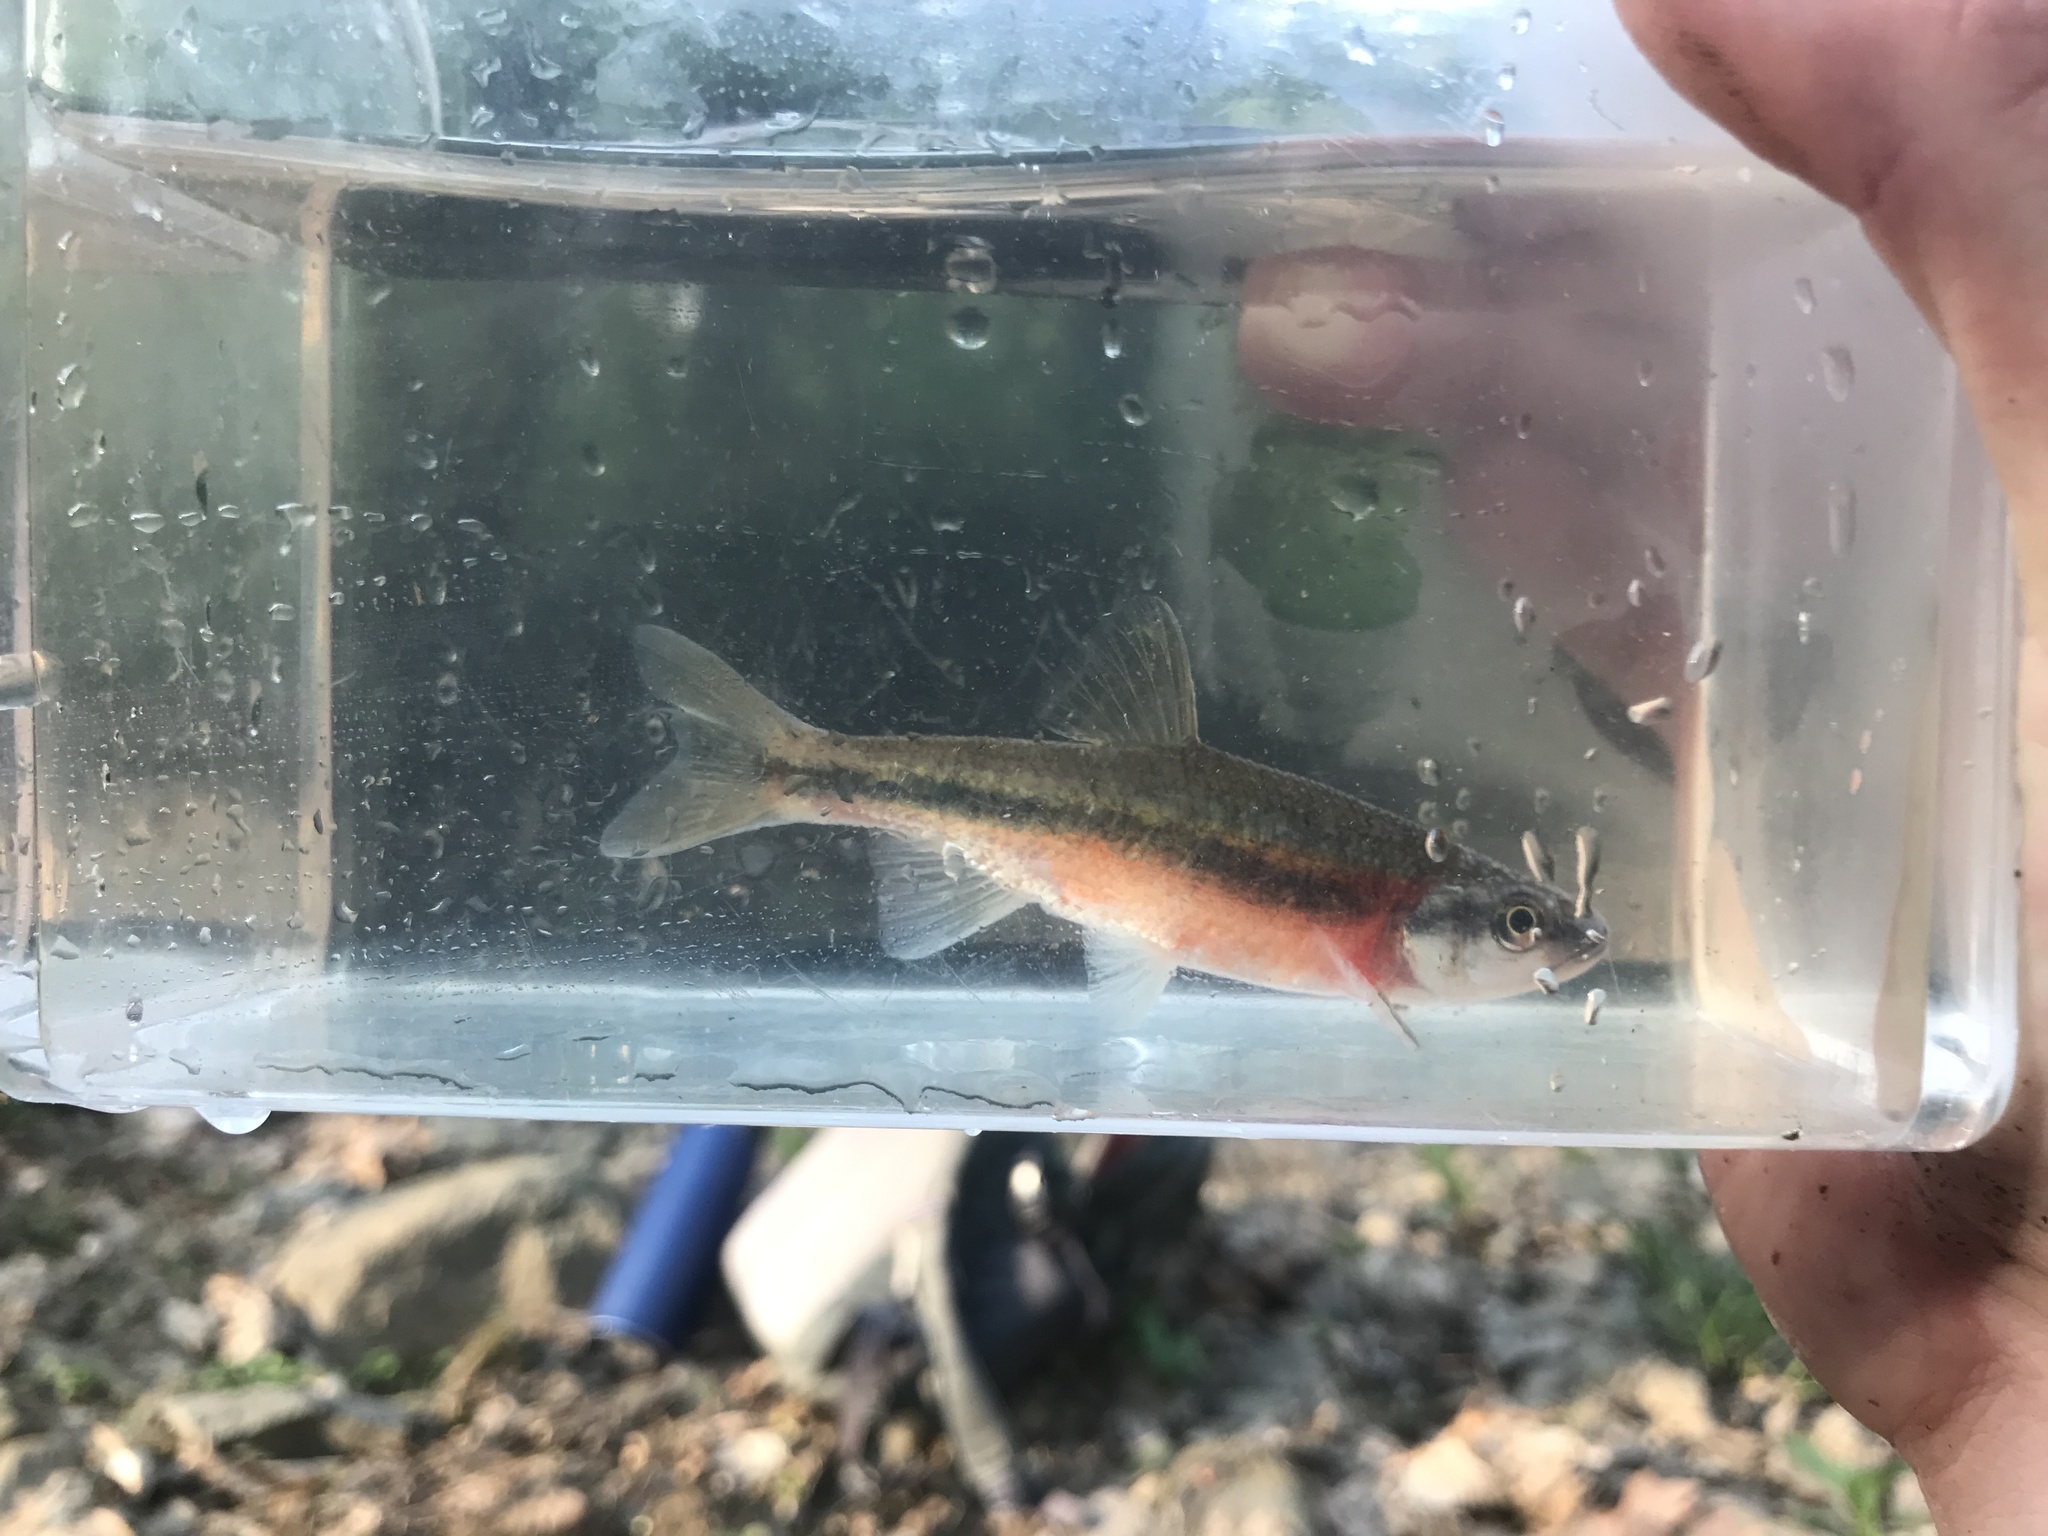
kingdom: Animalia
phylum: Chordata
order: Cypriniformes
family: Cyprinidae
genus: Clinostomus
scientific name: Clinostomus funduloides
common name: Rosyside dace
